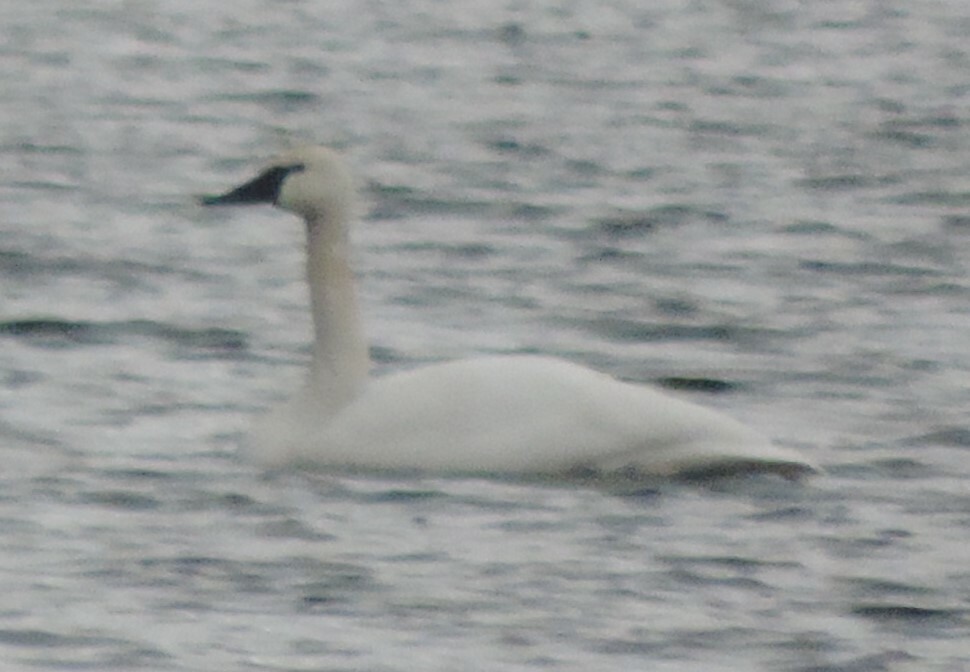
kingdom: Animalia
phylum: Chordata
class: Aves
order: Anseriformes
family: Anatidae
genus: Cygnus
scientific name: Cygnus buccinator
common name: Trumpeter swan
